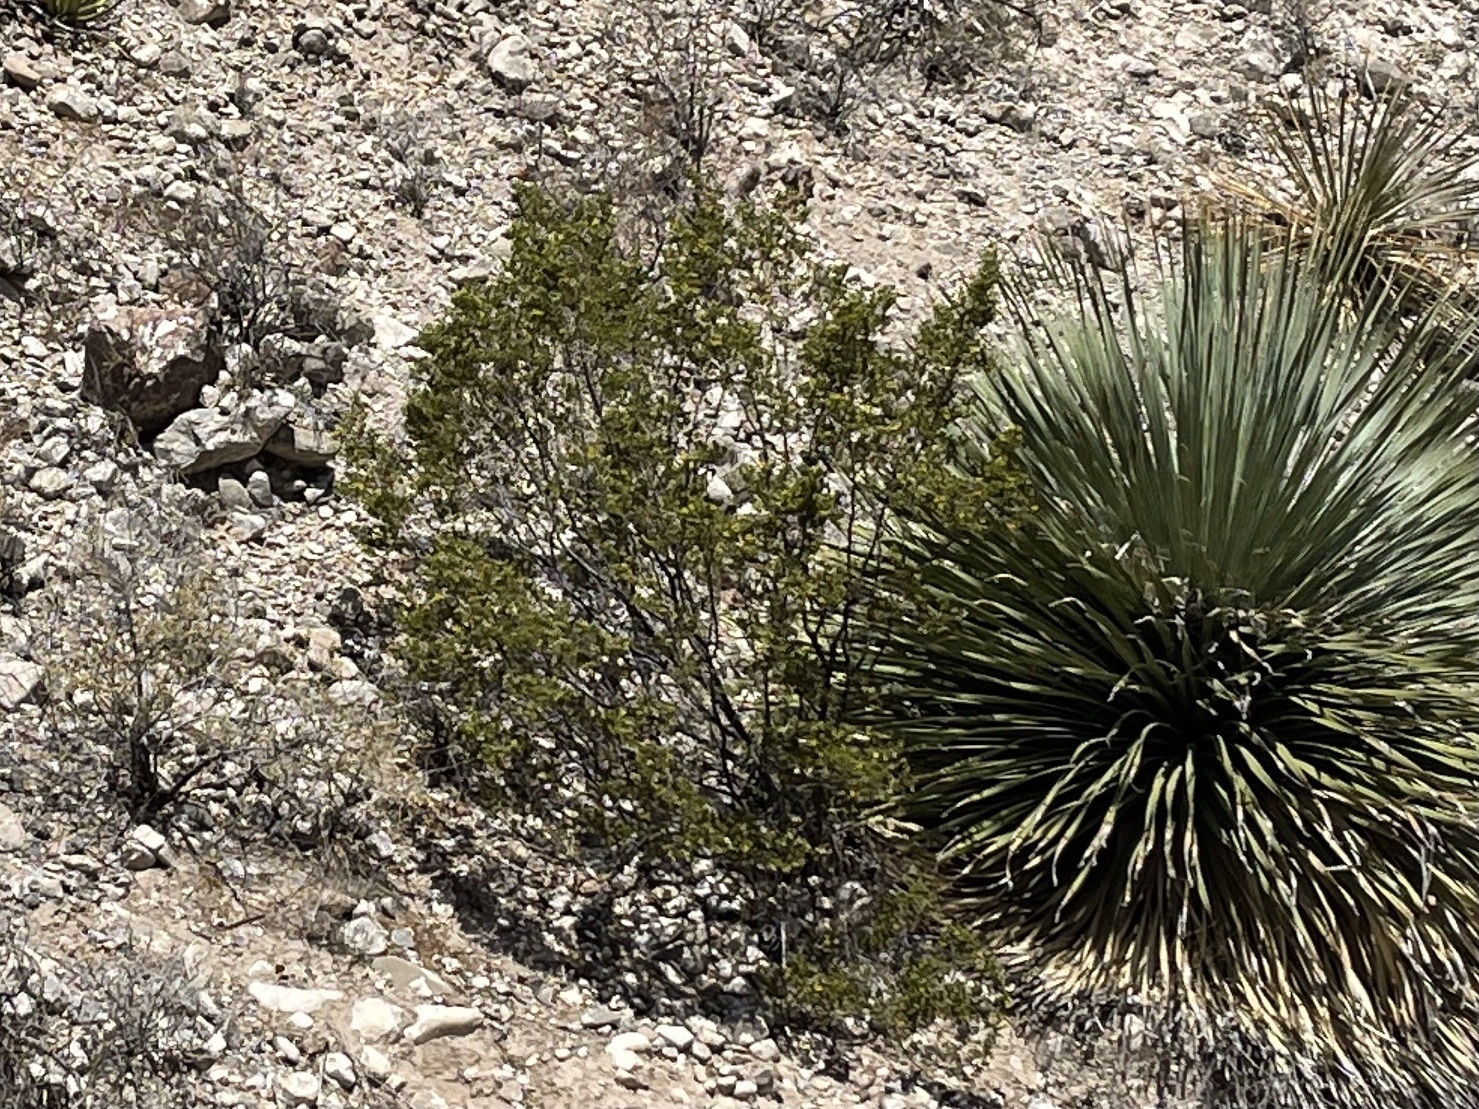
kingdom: Plantae
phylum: Tracheophyta
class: Magnoliopsida
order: Zygophyllales
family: Zygophyllaceae
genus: Larrea
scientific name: Larrea tridentata
